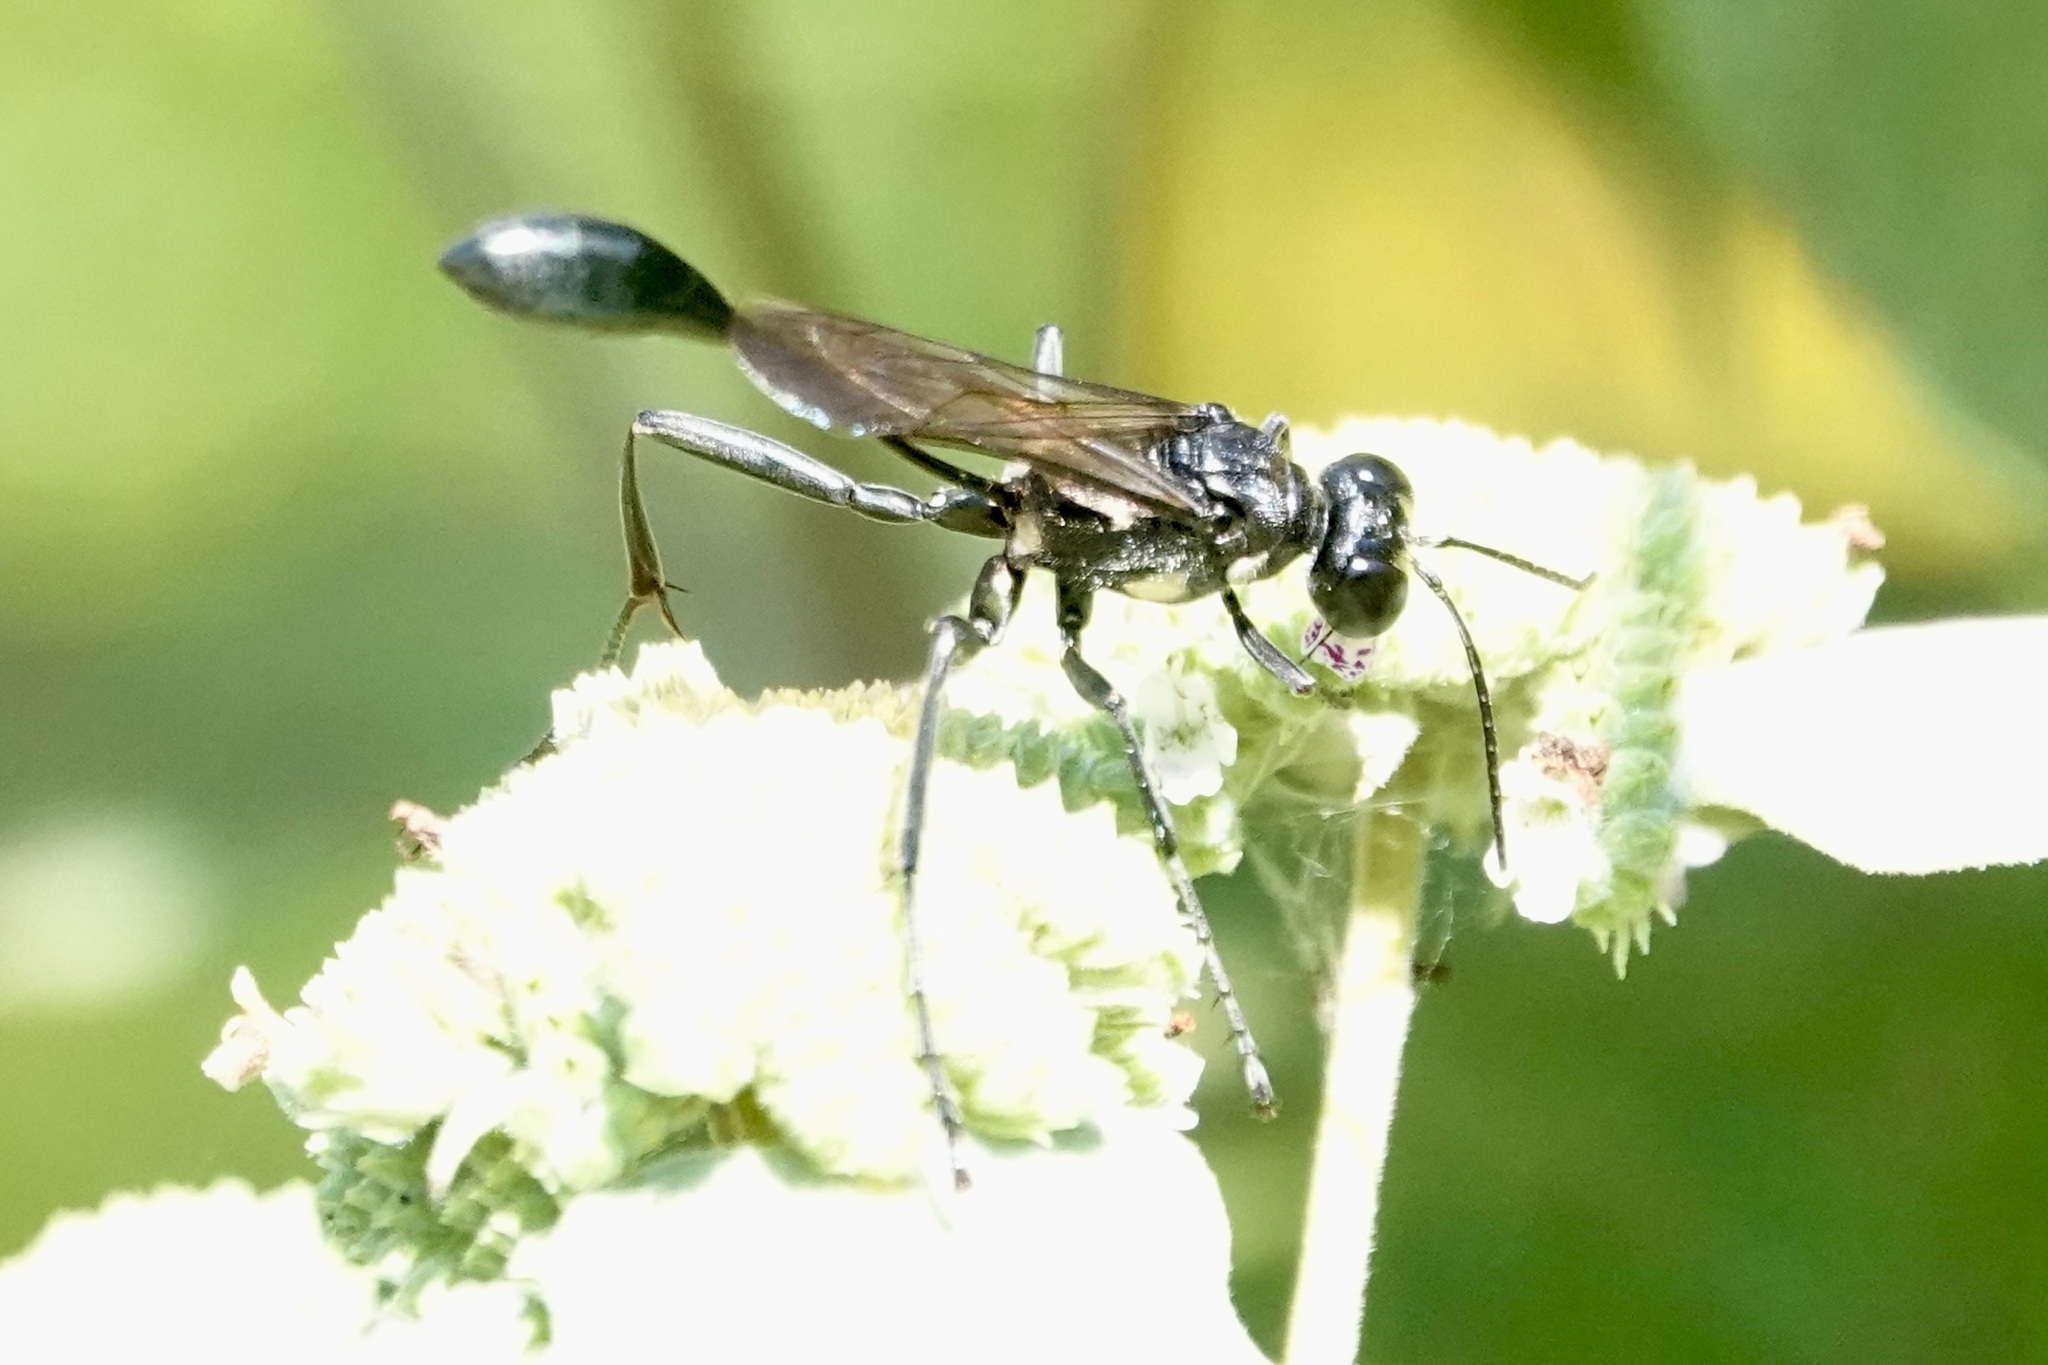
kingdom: Animalia
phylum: Arthropoda
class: Insecta
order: Hymenoptera
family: Sphecidae
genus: Eremnophila
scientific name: Eremnophila aureonotata
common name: Gold-marked thread-waisted wasp
